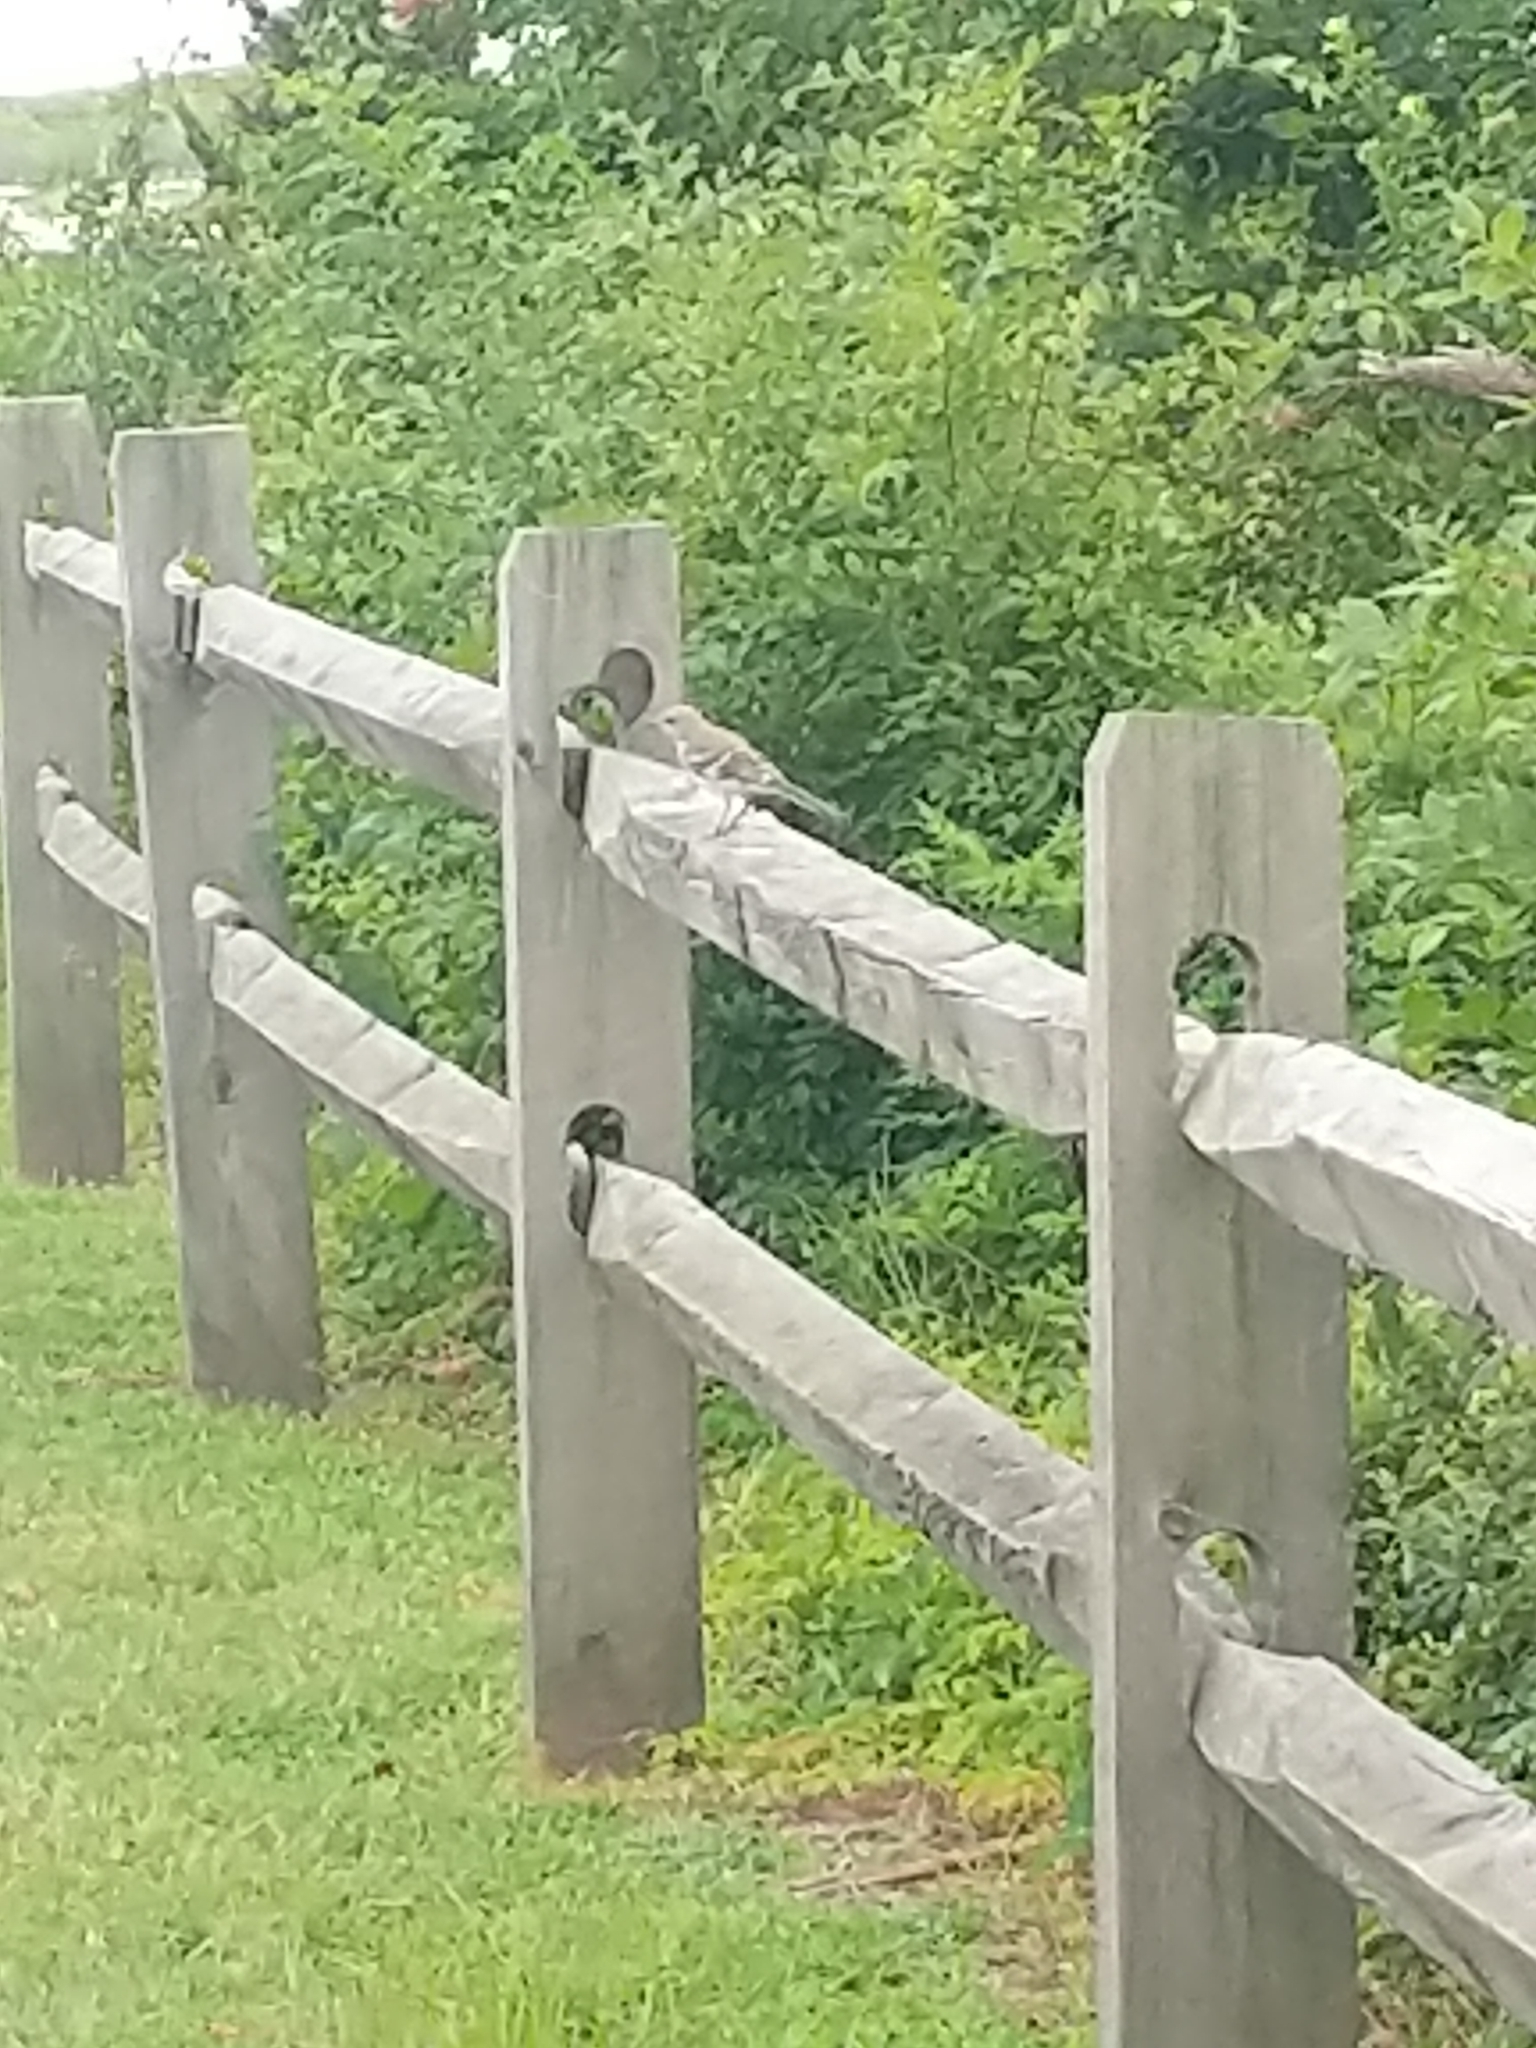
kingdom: Animalia
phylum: Chordata
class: Aves
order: Passeriformes
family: Mimidae
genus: Mimus
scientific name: Mimus polyglottos
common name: Northern mockingbird
